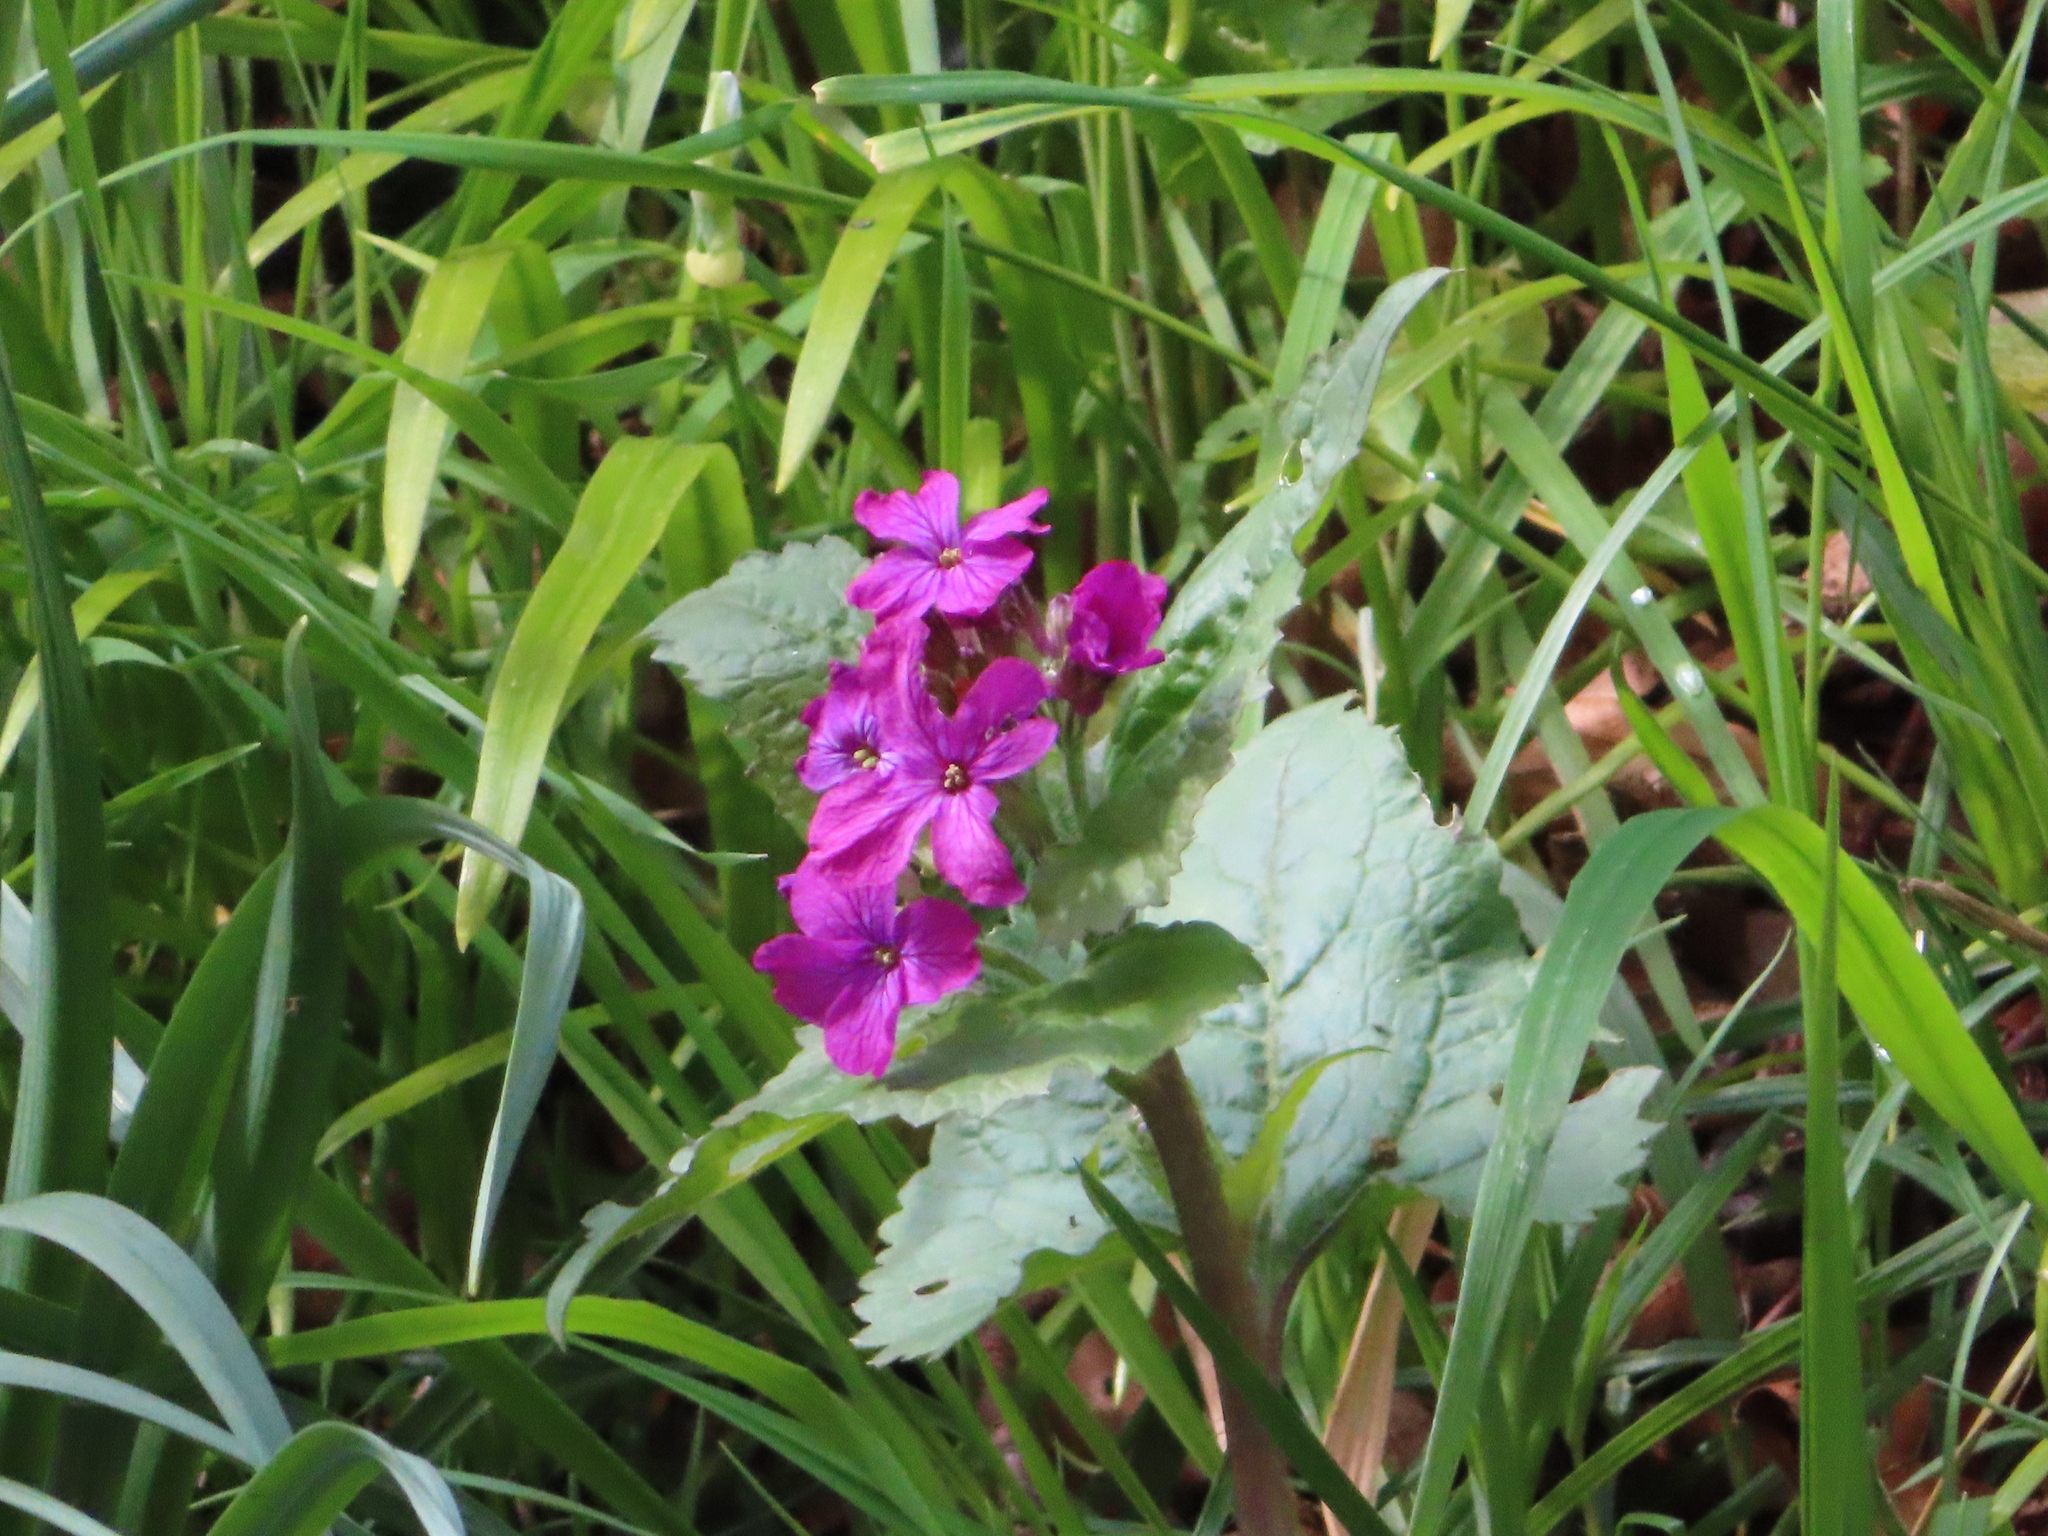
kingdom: Plantae
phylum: Tracheophyta
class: Magnoliopsida
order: Brassicales
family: Brassicaceae
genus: Lunaria
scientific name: Lunaria annua
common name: Honesty
